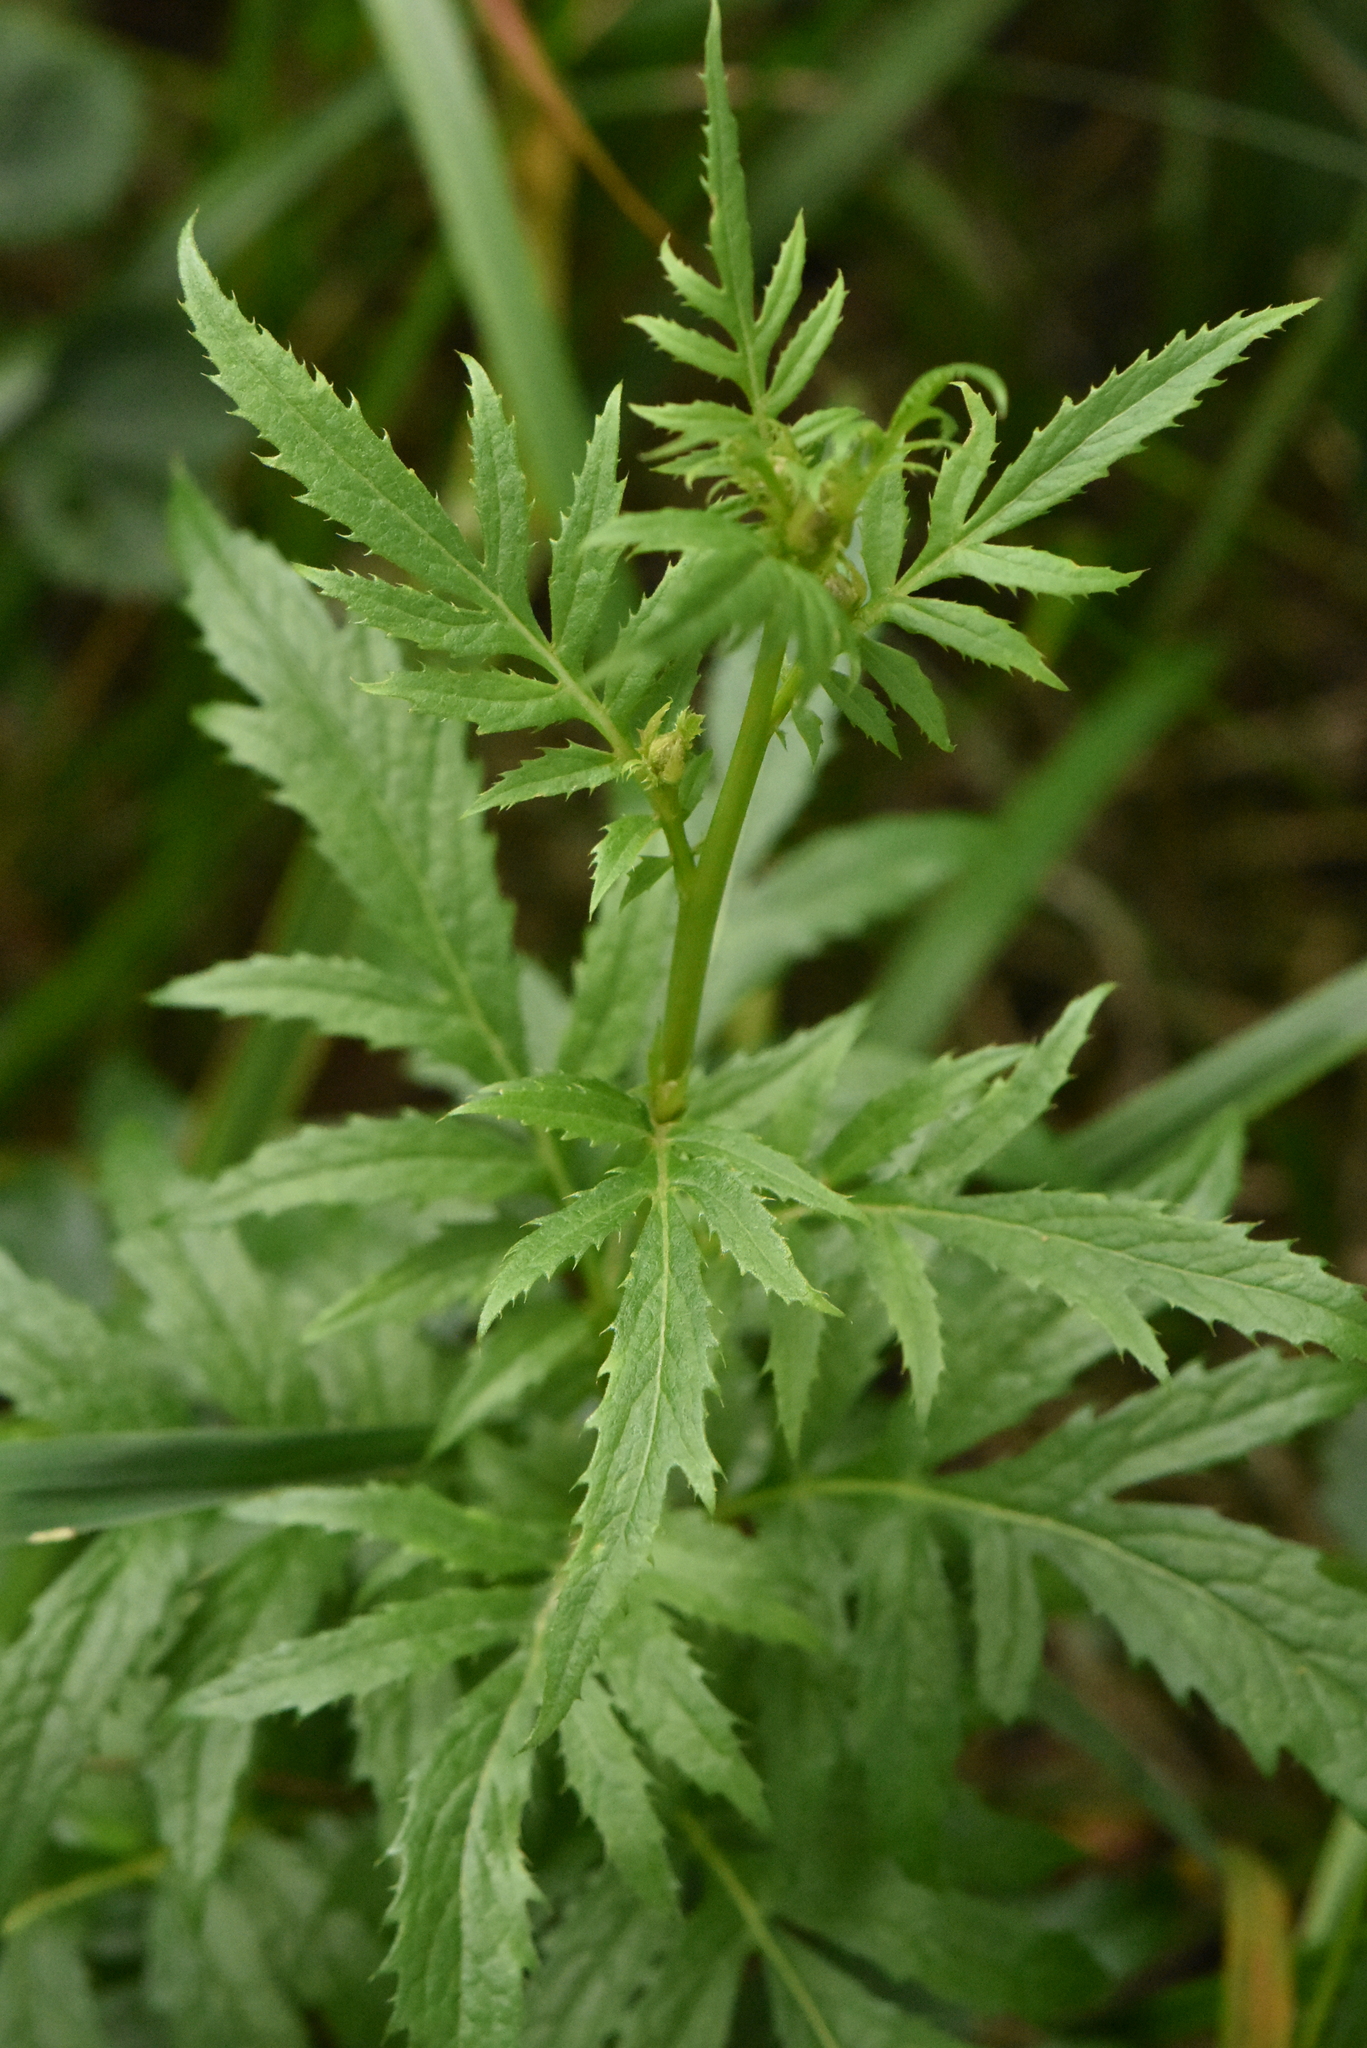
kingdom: Plantae
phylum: Tracheophyta
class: Magnoliopsida
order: Asterales
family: Asteraceae
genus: Serratula
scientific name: Serratula coronata
